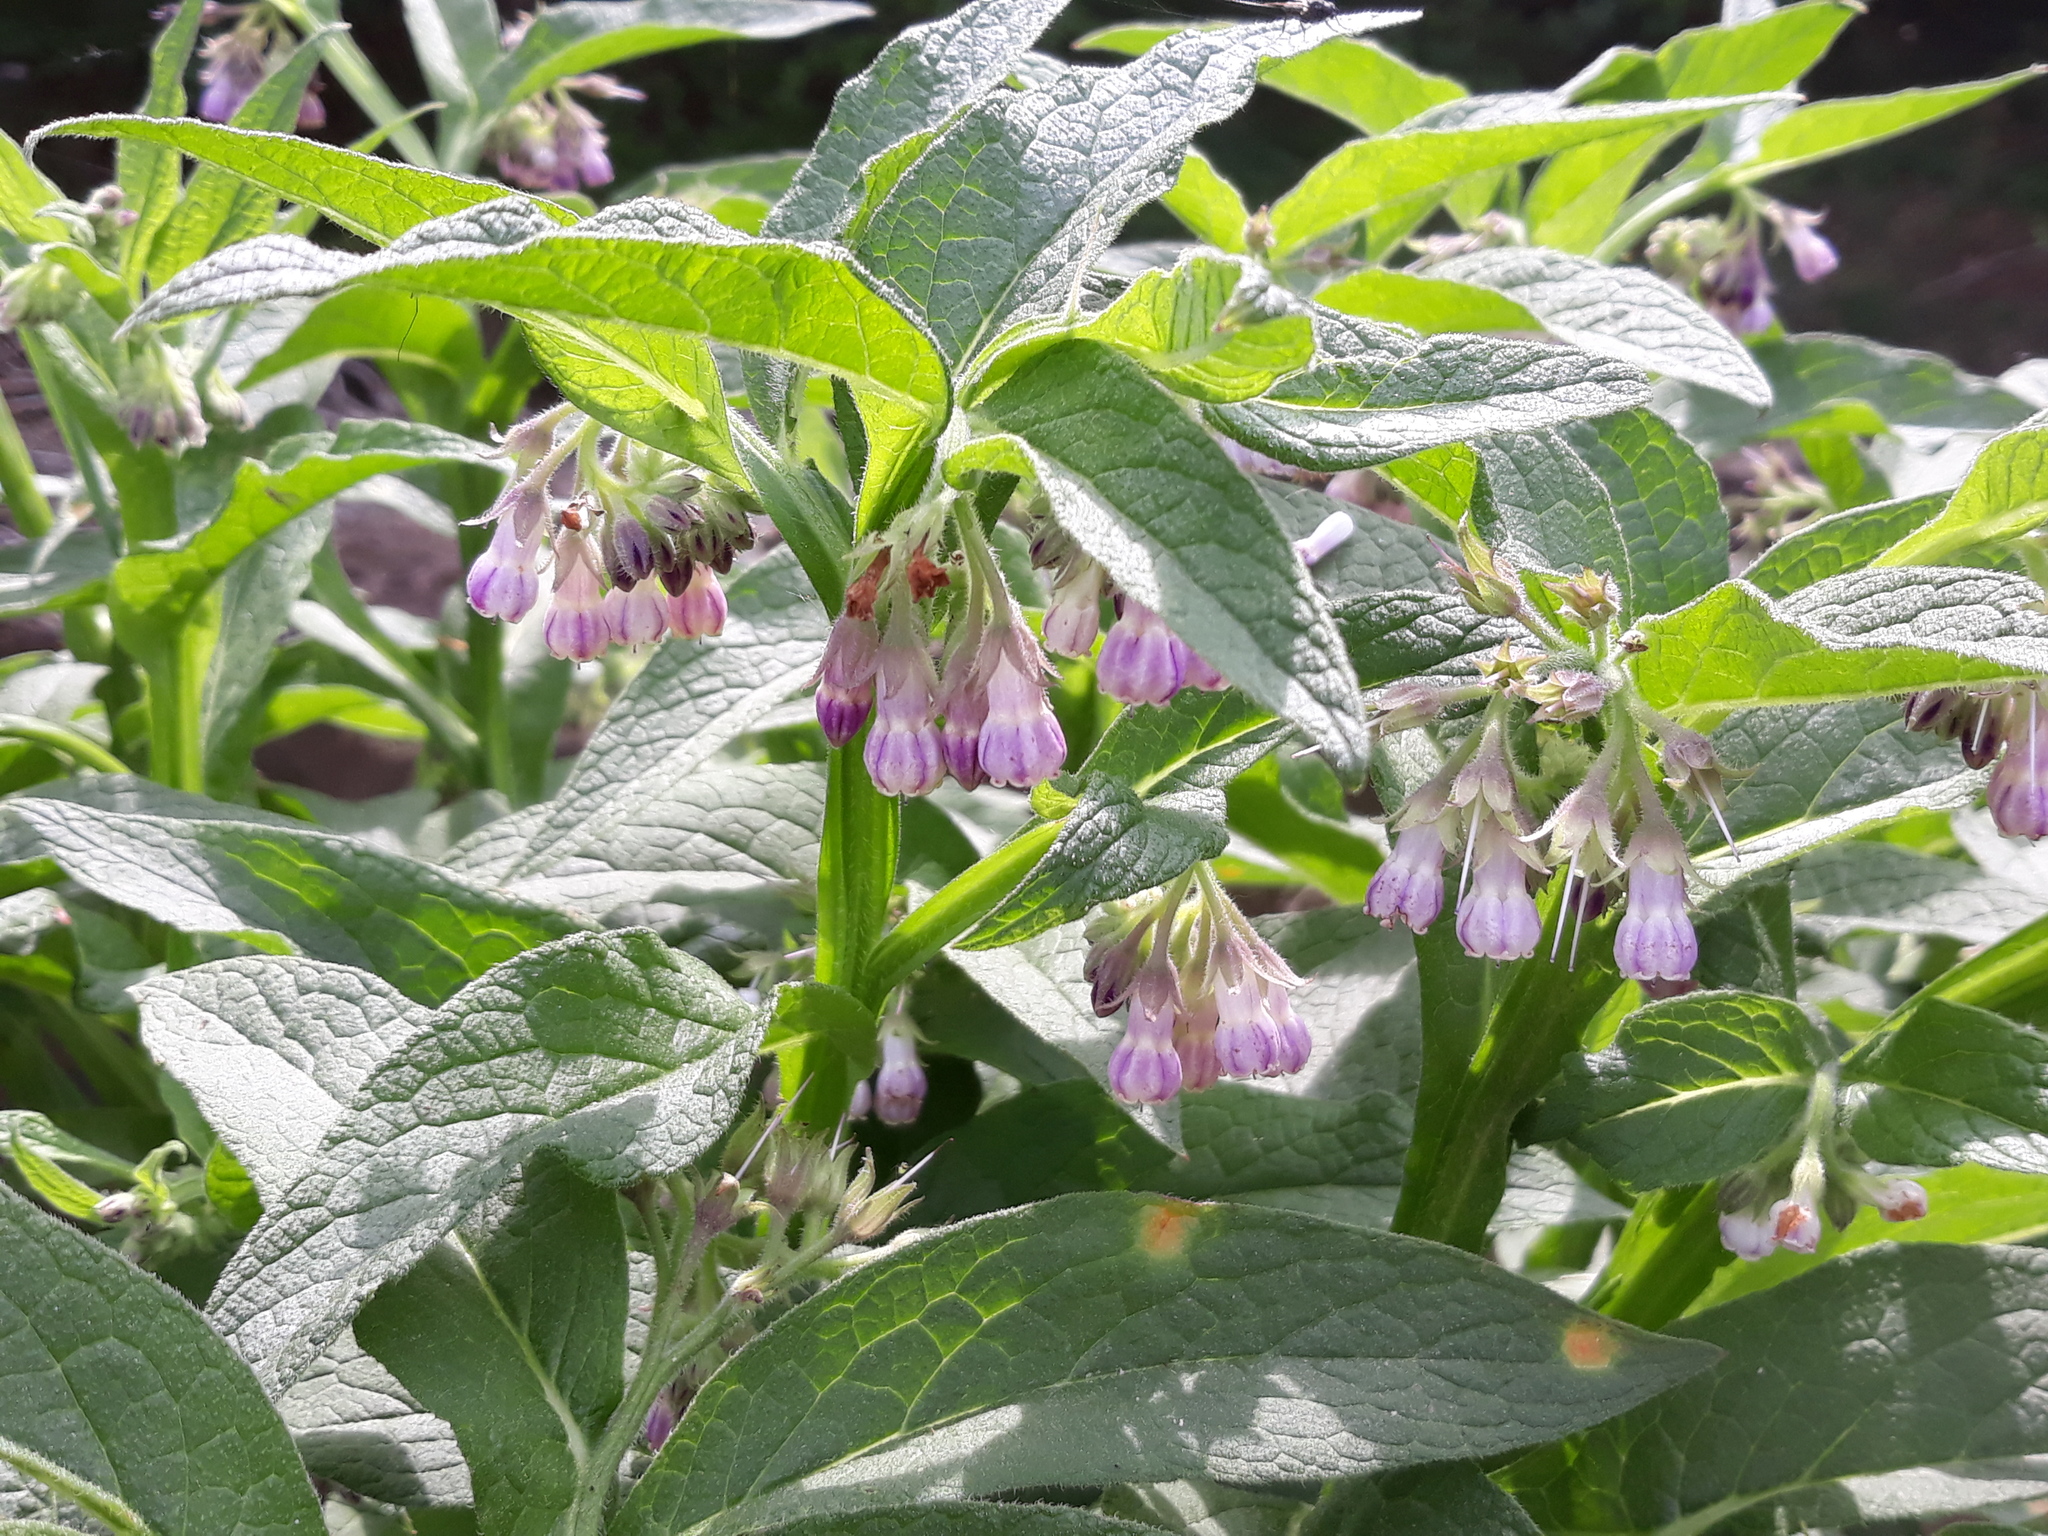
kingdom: Plantae
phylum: Tracheophyta
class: Magnoliopsida
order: Boraginales
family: Boraginaceae
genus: Symphytum
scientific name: Symphytum officinale
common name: Common comfrey
